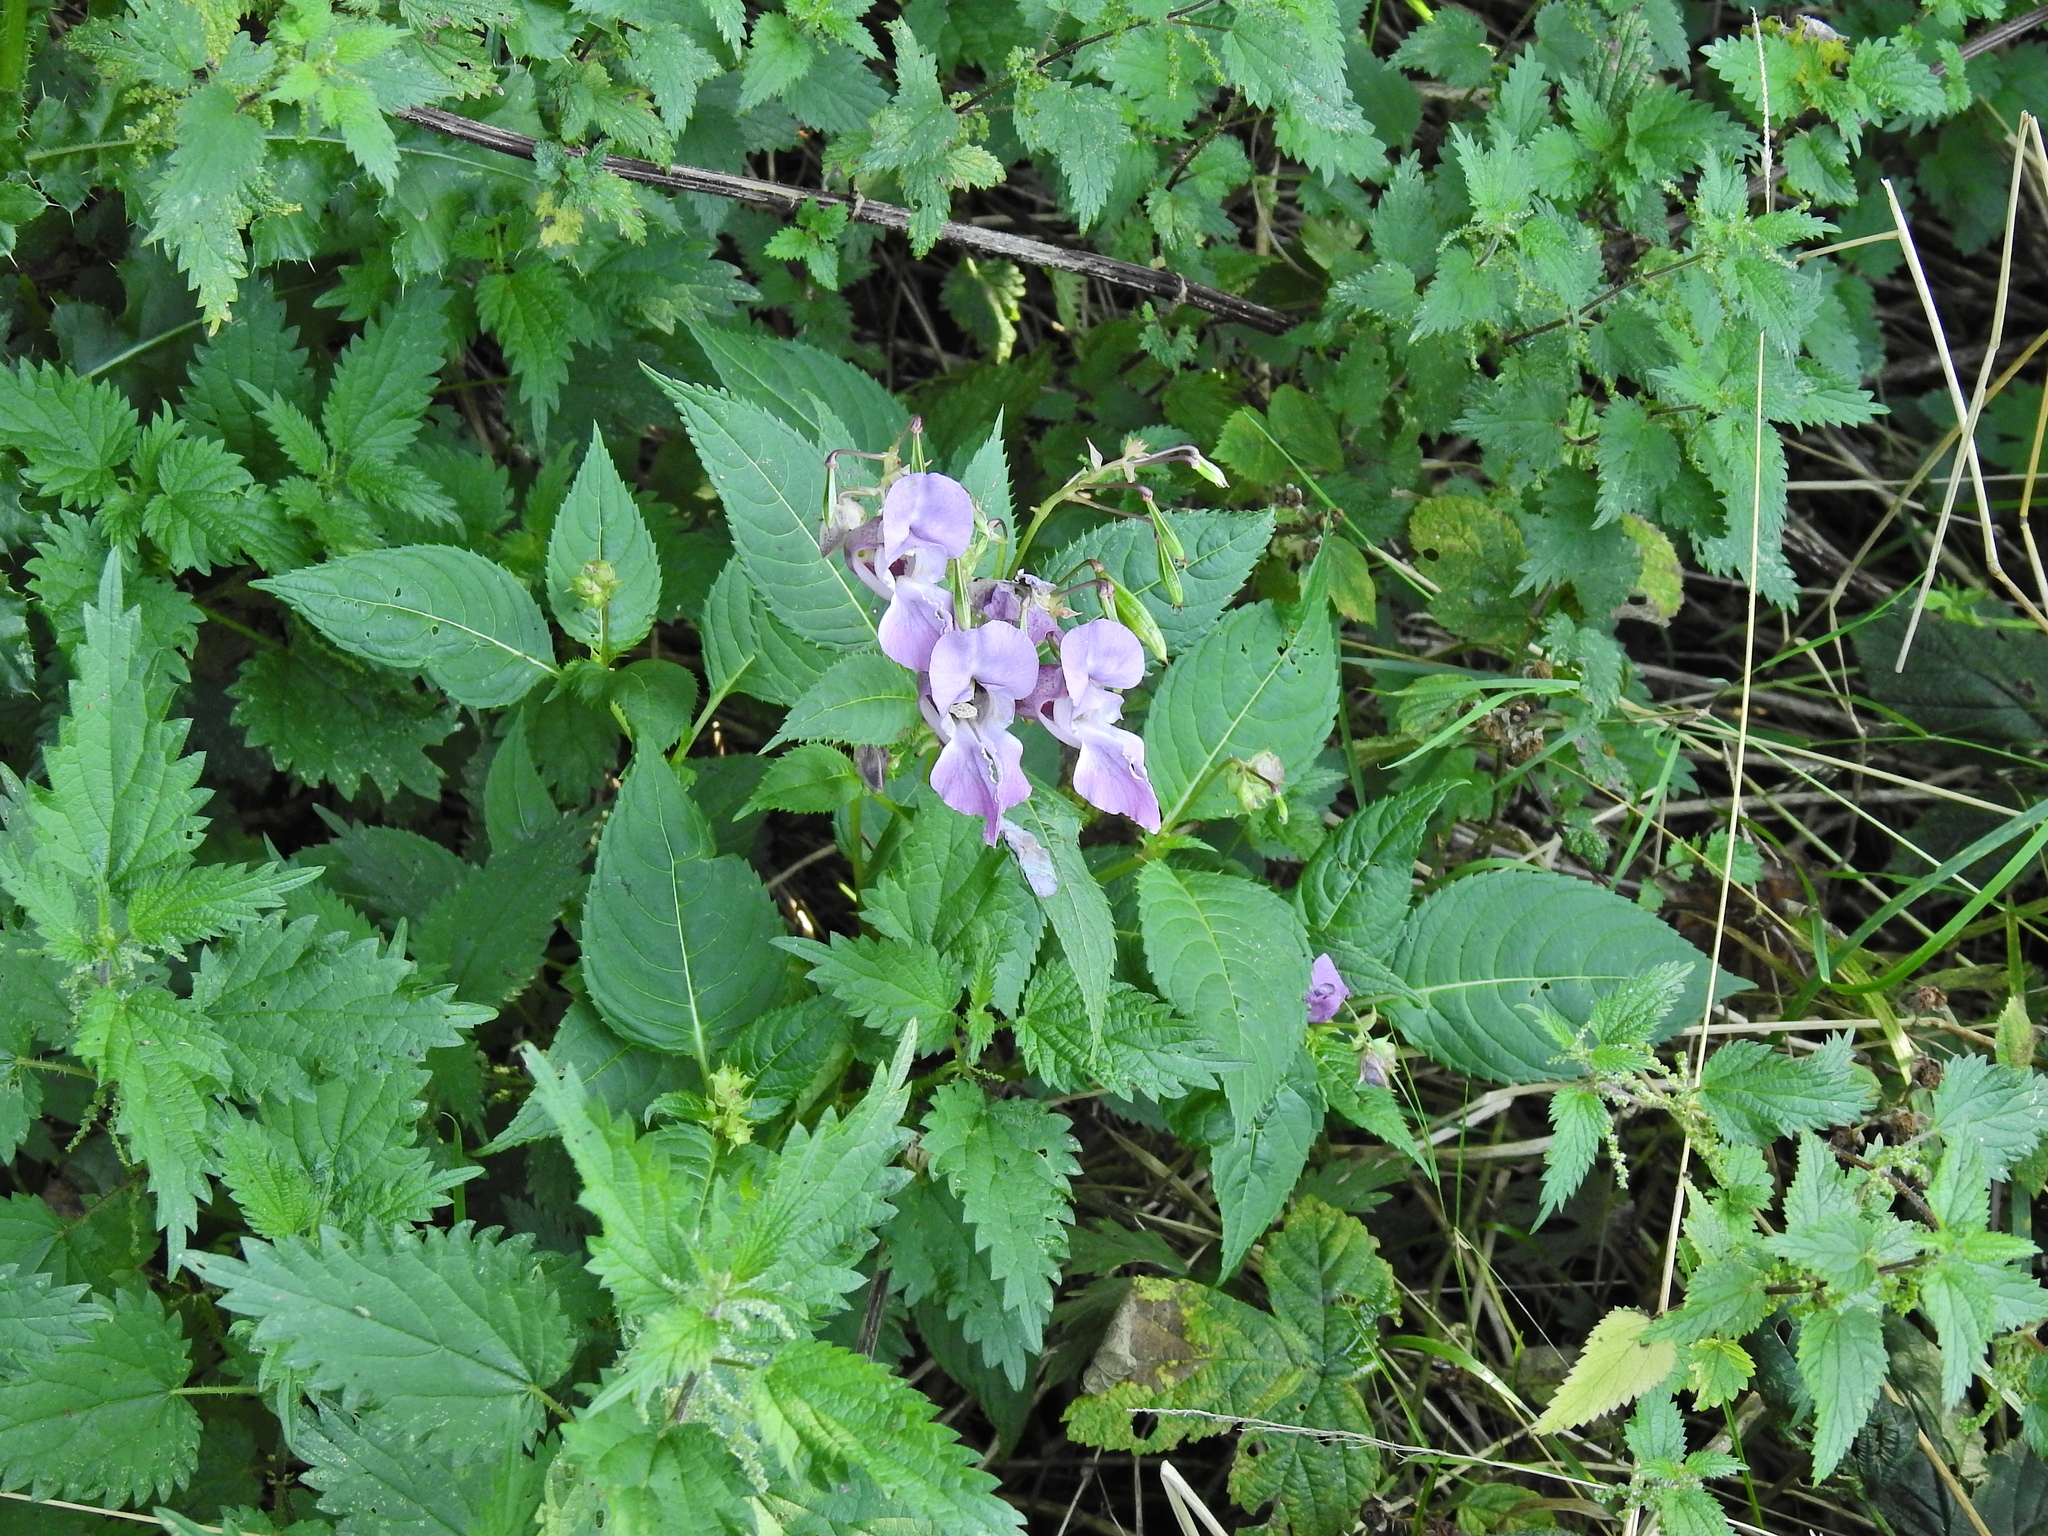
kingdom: Plantae
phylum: Tracheophyta
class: Magnoliopsida
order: Ericales
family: Balsaminaceae
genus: Impatiens
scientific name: Impatiens glandulifera
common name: Himalayan balsam
